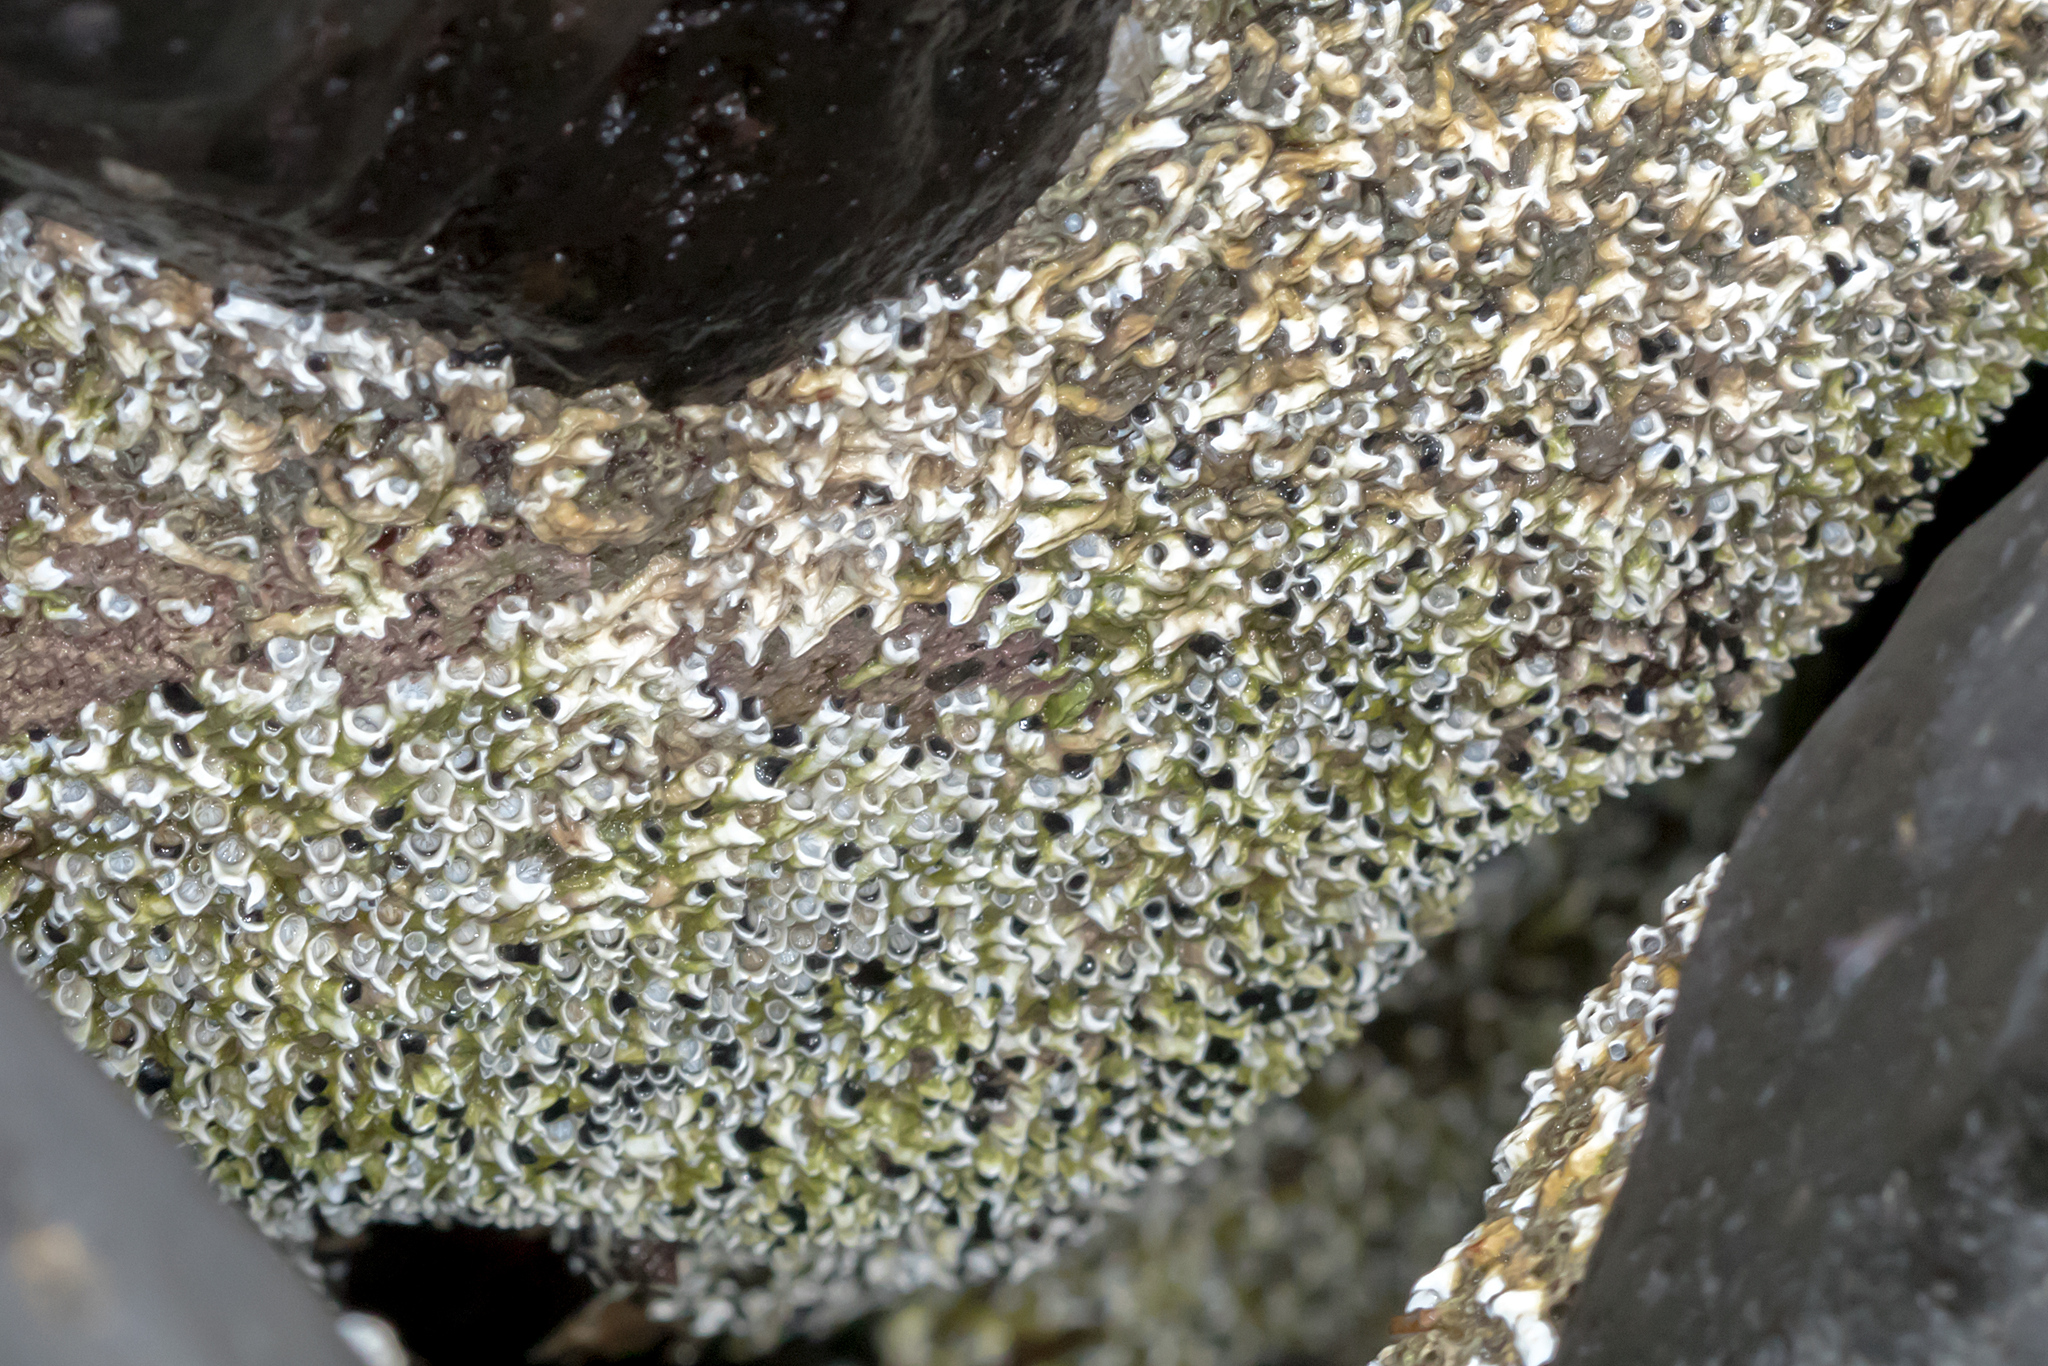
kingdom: Animalia
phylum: Annelida
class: Polychaeta
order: Sabellida
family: Serpulidae
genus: Galeolaria
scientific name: Galeolaria gemineoa
